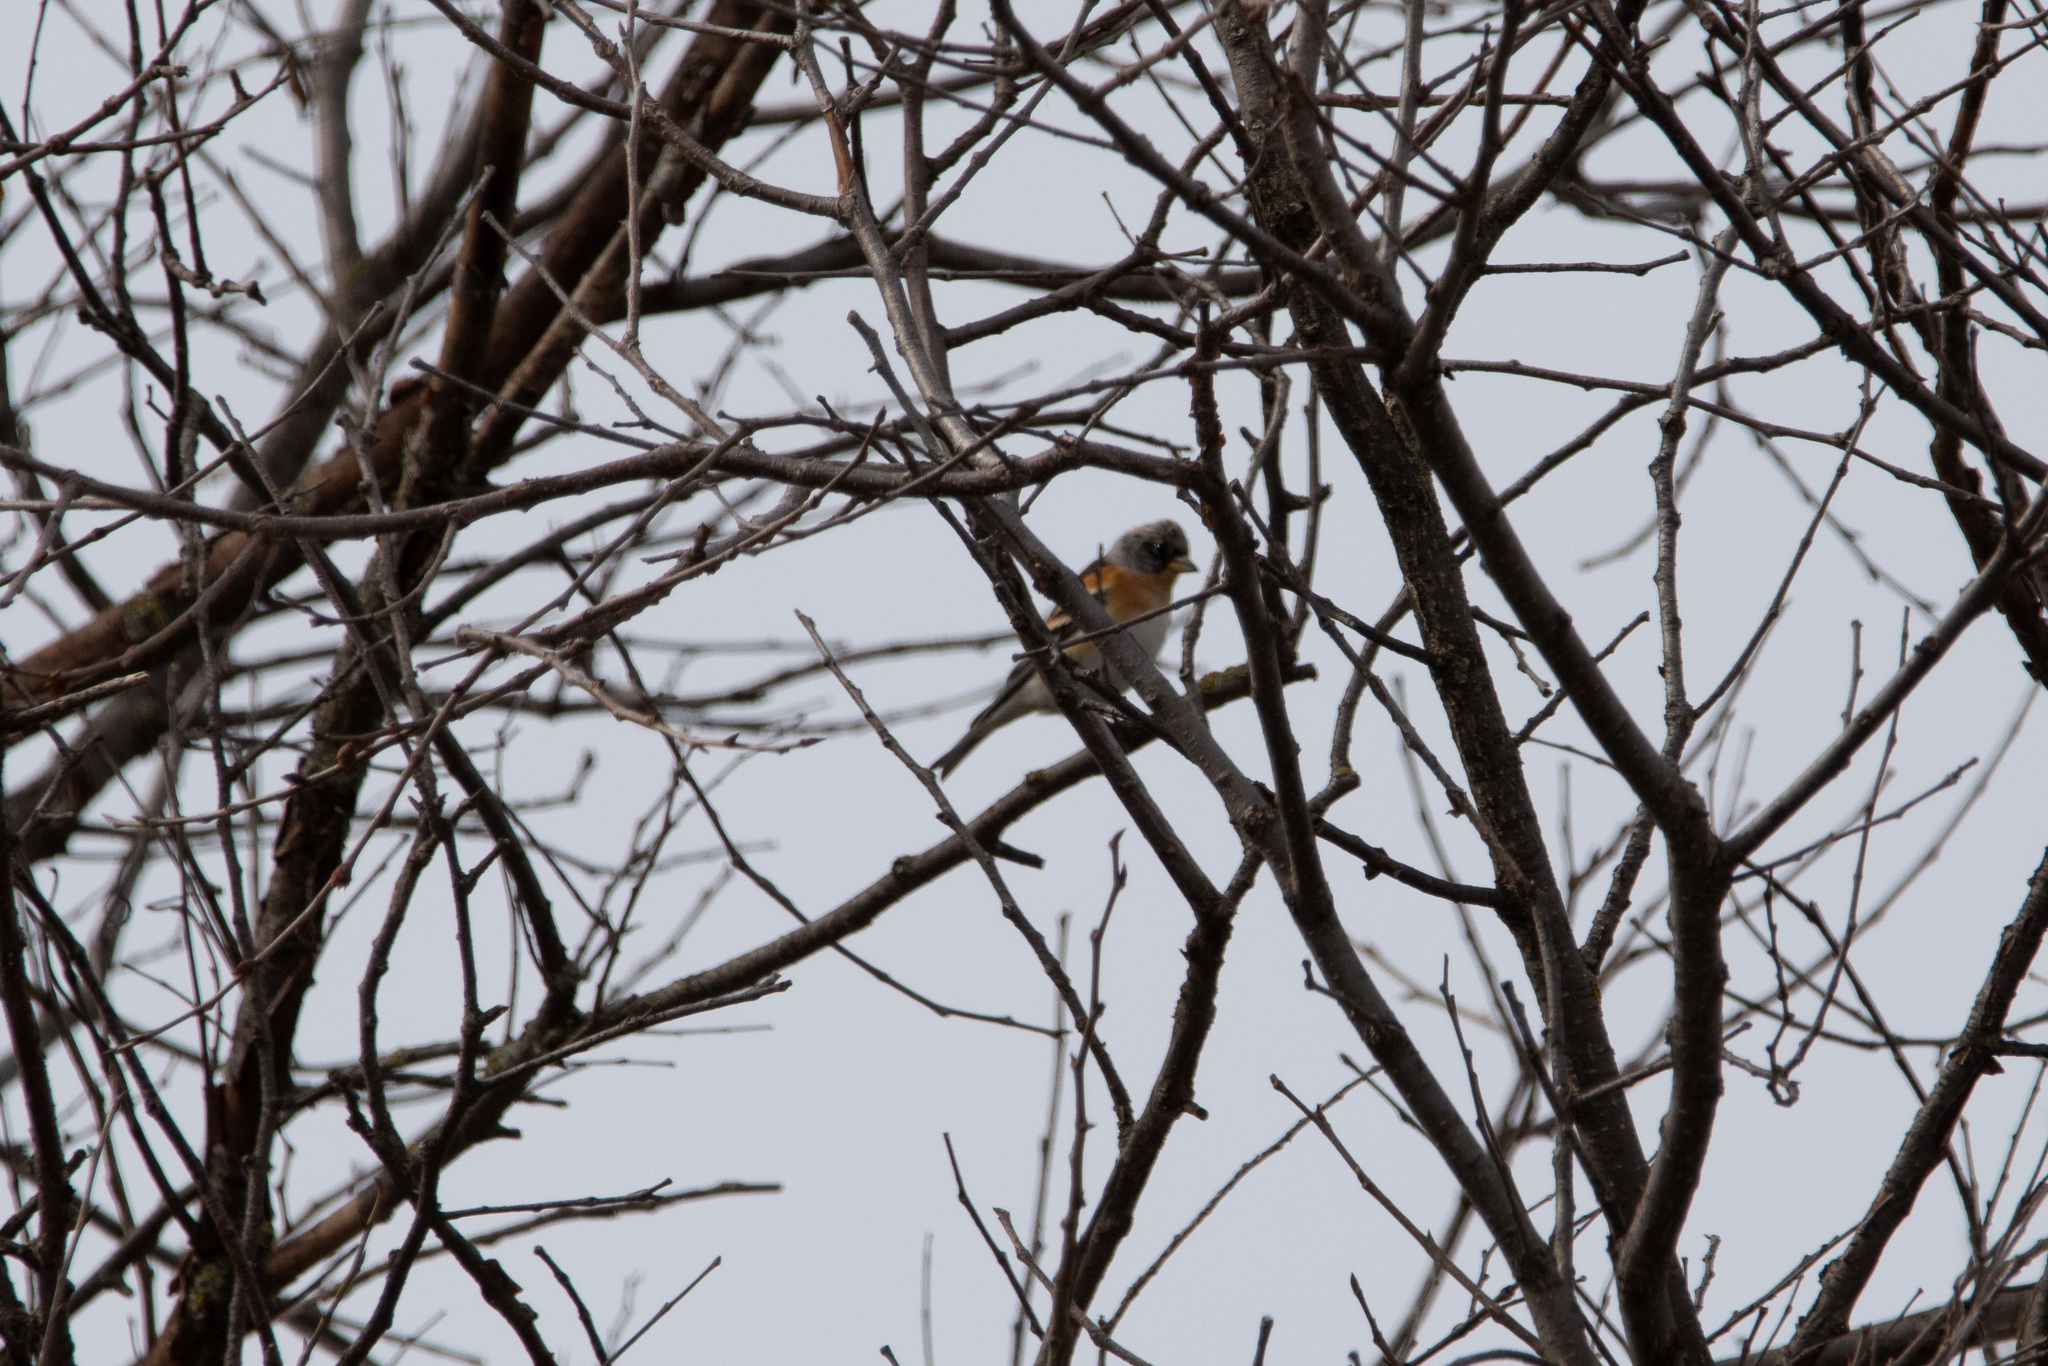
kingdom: Animalia
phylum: Chordata
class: Aves
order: Passeriformes
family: Fringillidae
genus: Fringilla
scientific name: Fringilla montifringilla
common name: Brambling
